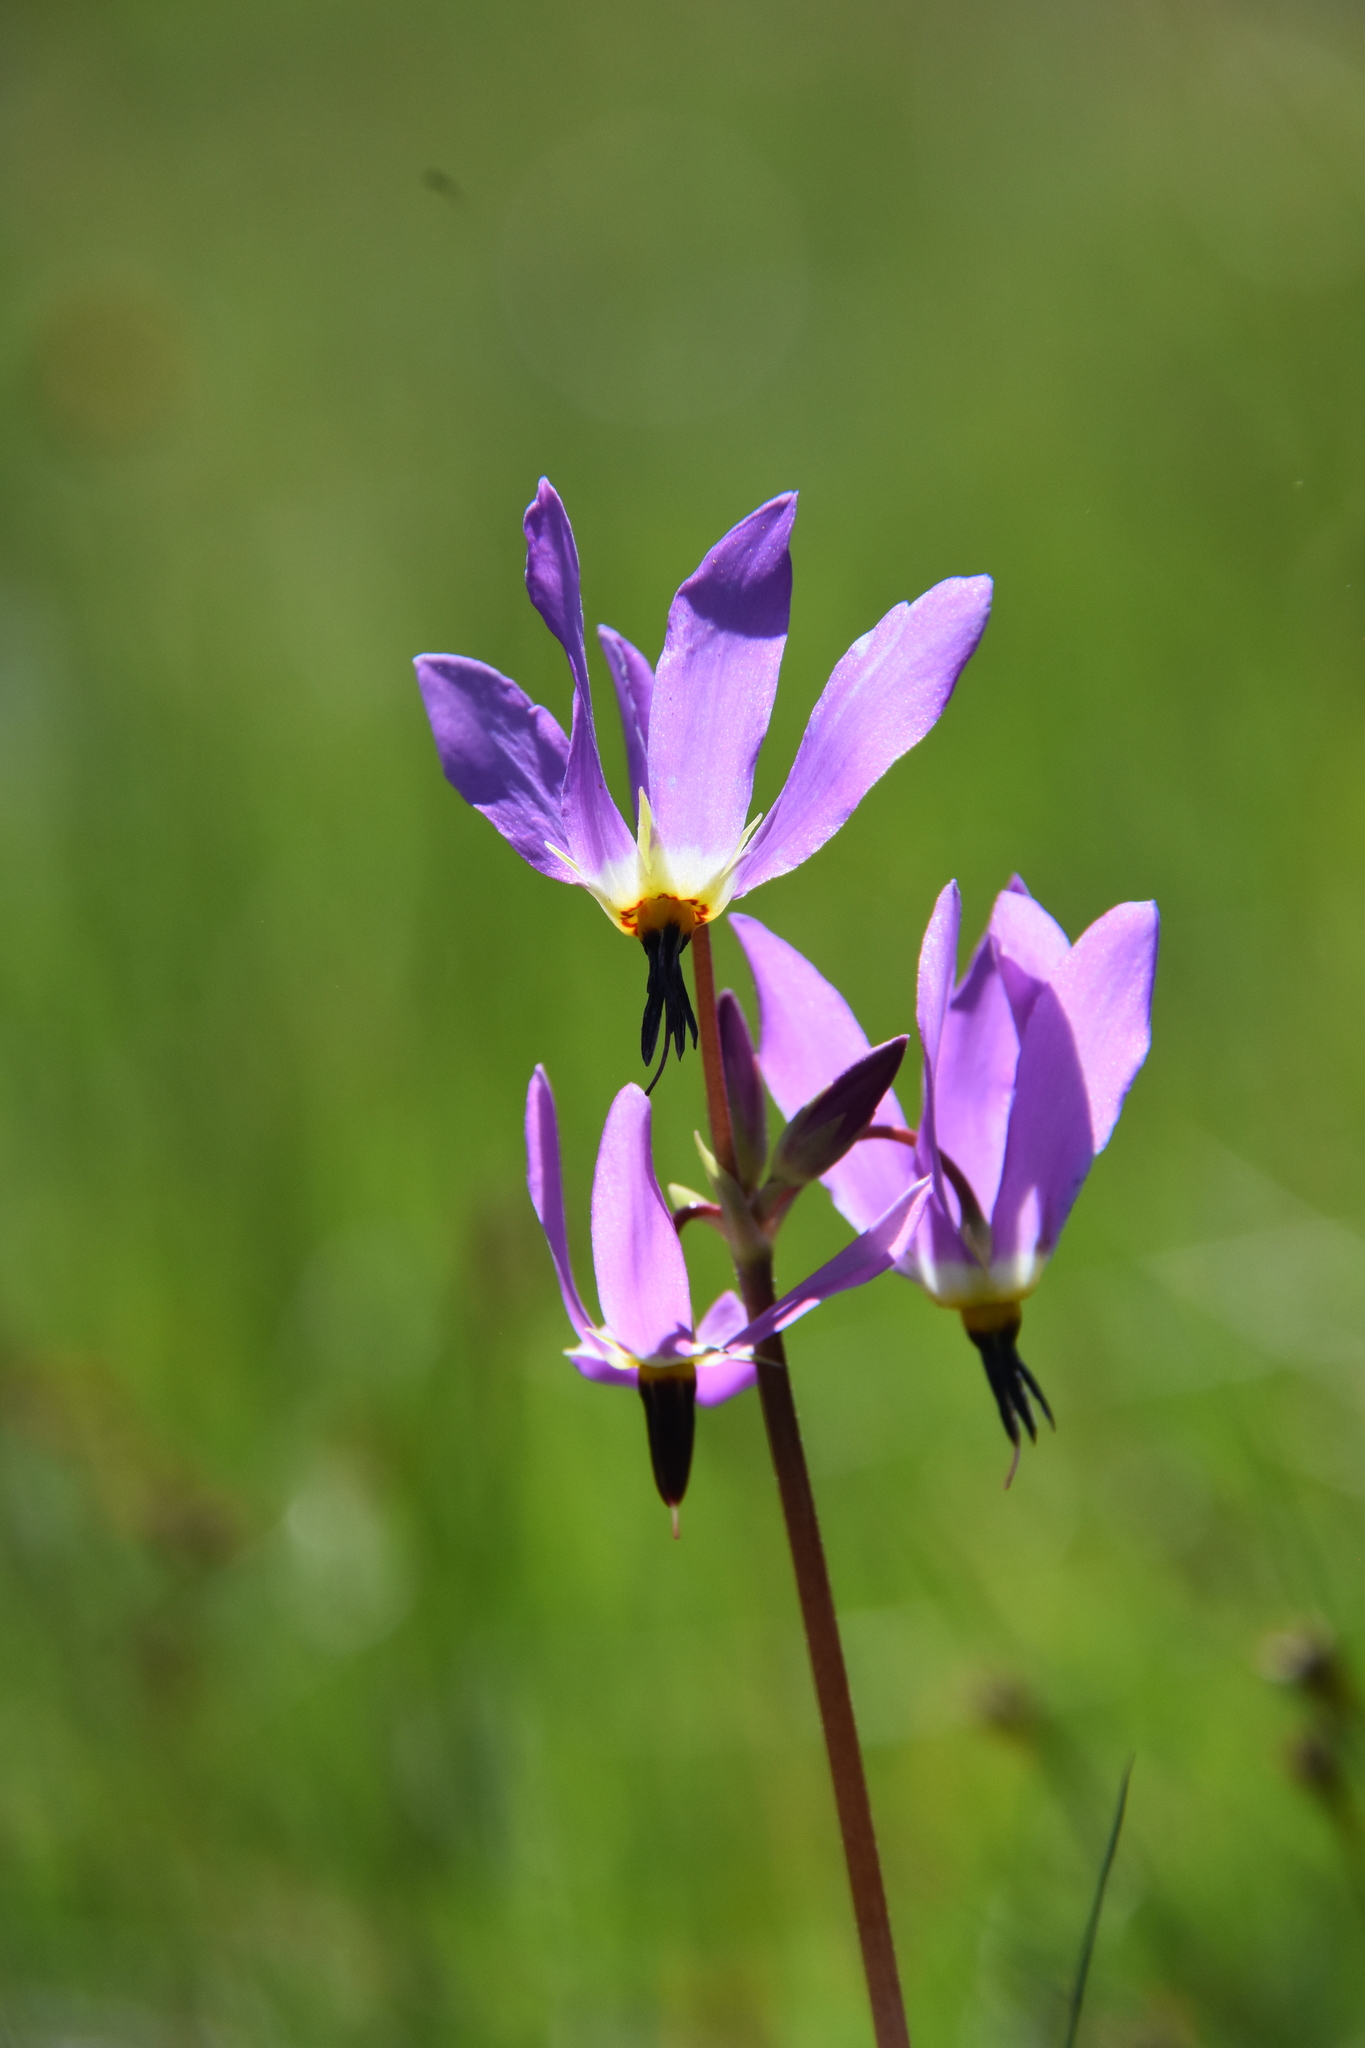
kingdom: Plantae
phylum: Tracheophyta
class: Magnoliopsida
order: Ericales
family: Primulaceae
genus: Dodecatheon
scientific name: Dodecatheon pulchellum
